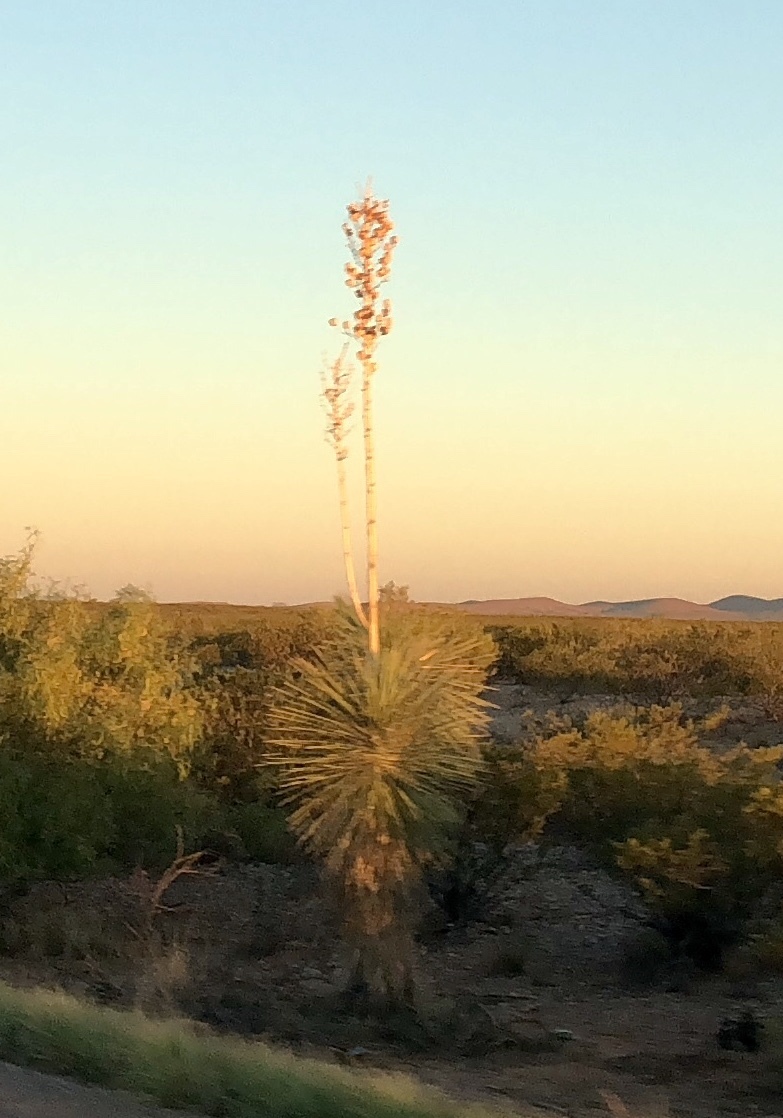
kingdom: Plantae
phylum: Tracheophyta
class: Liliopsida
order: Asparagales
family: Asparagaceae
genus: Yucca
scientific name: Yucca elata
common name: Palmella
